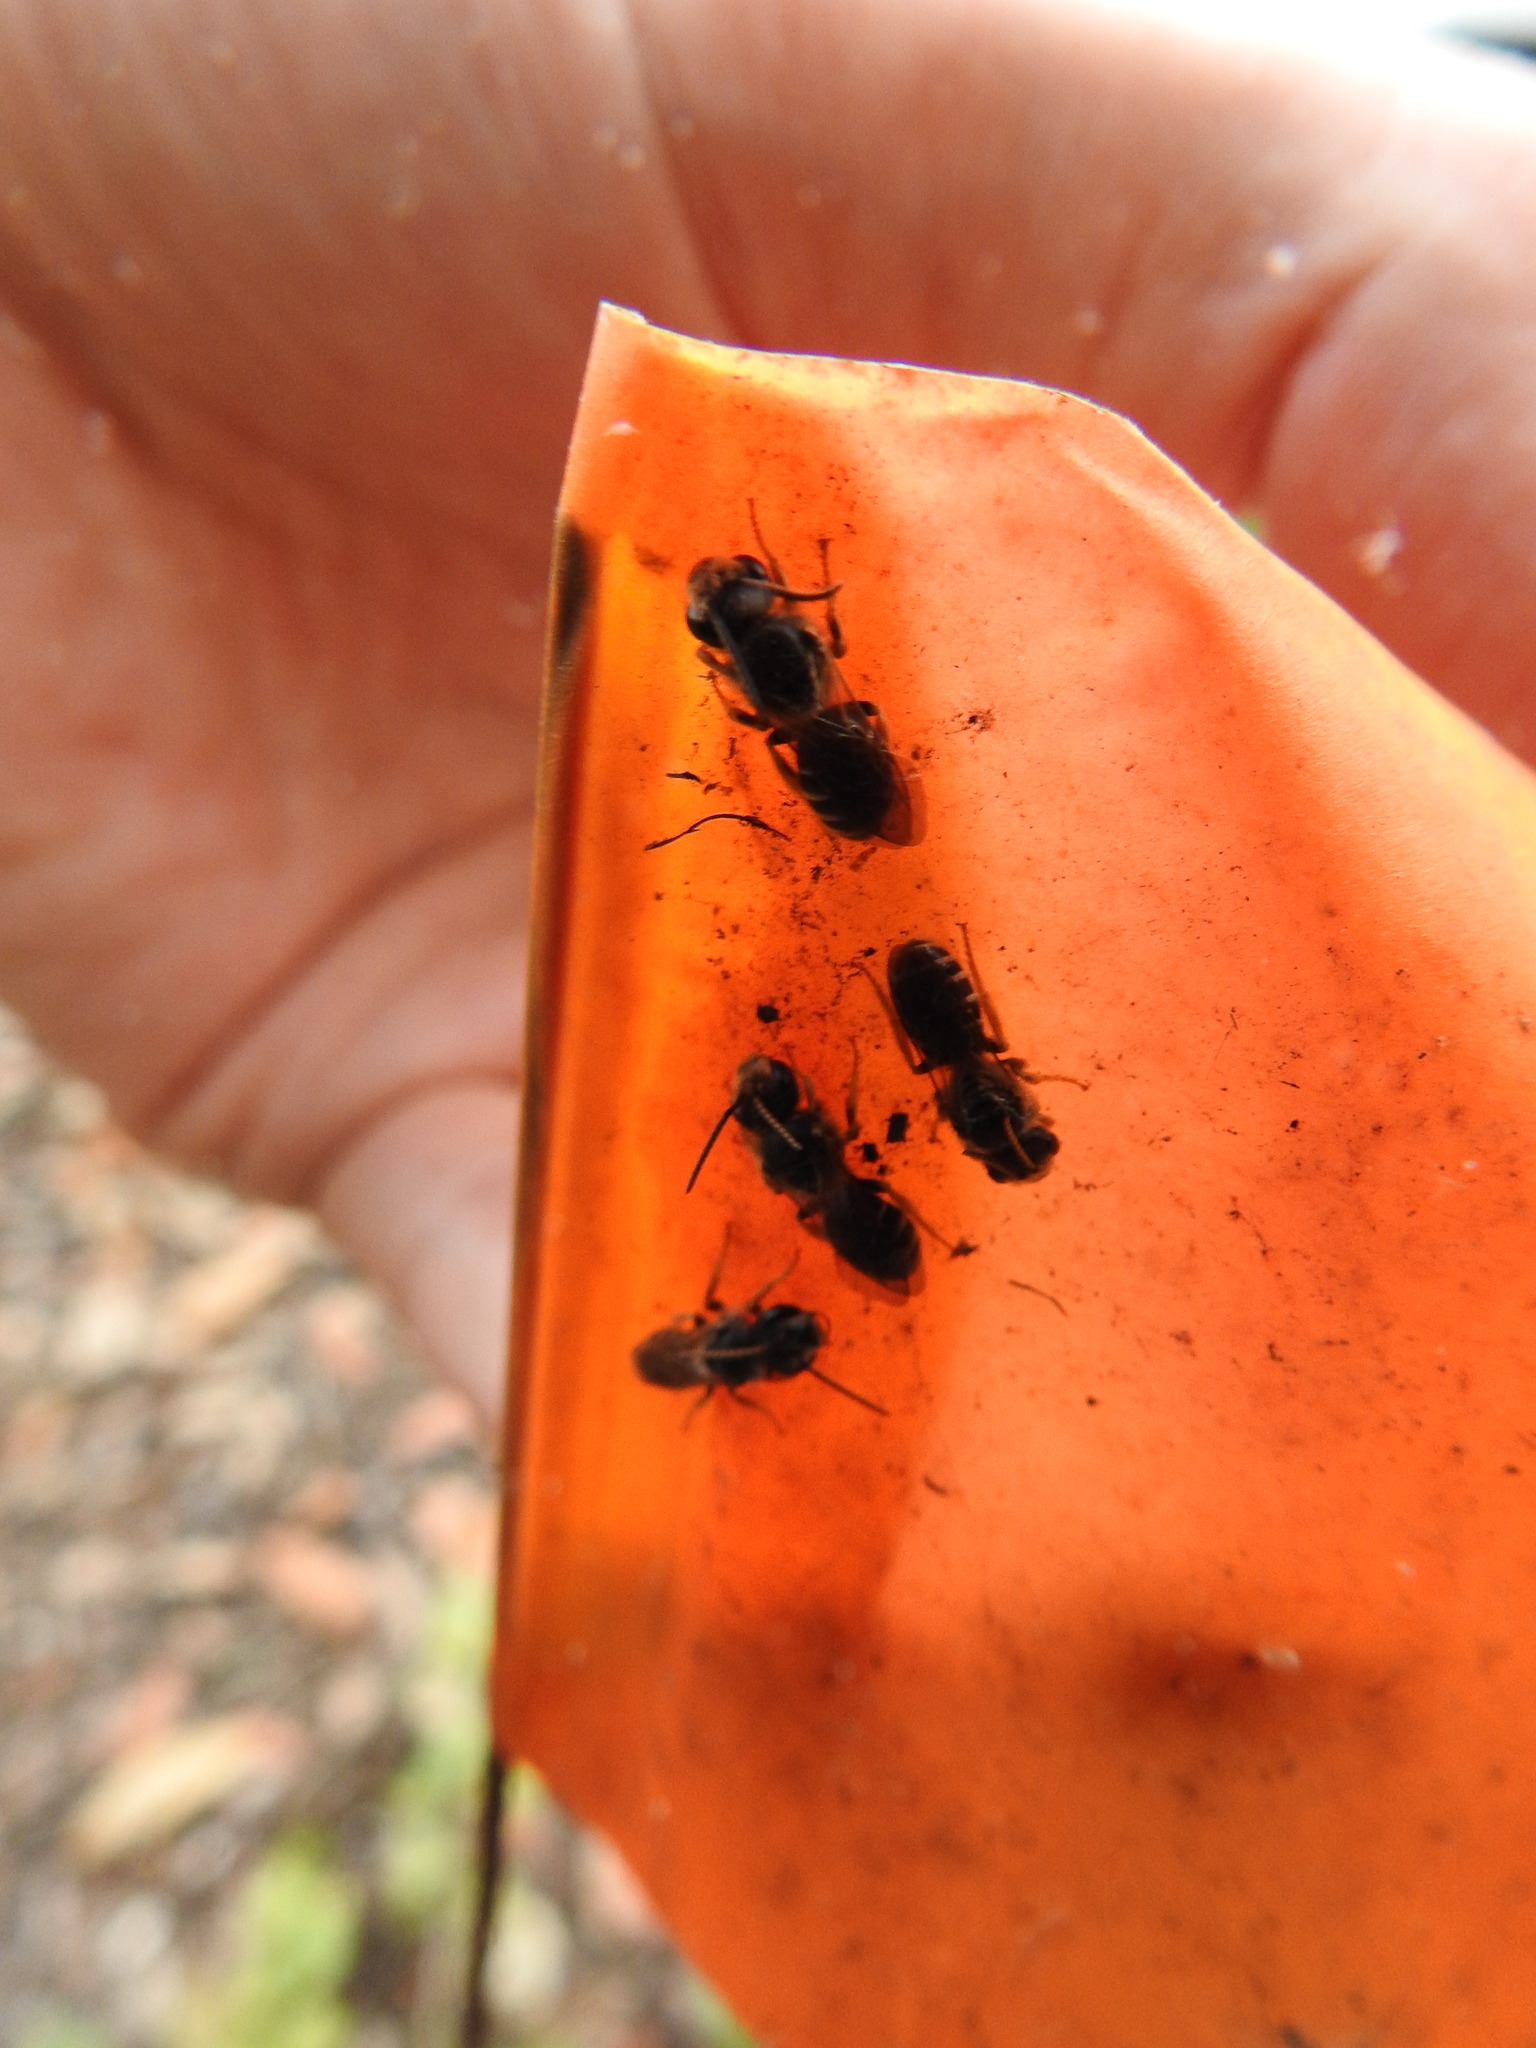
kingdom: Animalia
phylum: Arthropoda
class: Insecta
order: Hymenoptera
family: Halictidae
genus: Halictus
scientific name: Halictus poeyi
